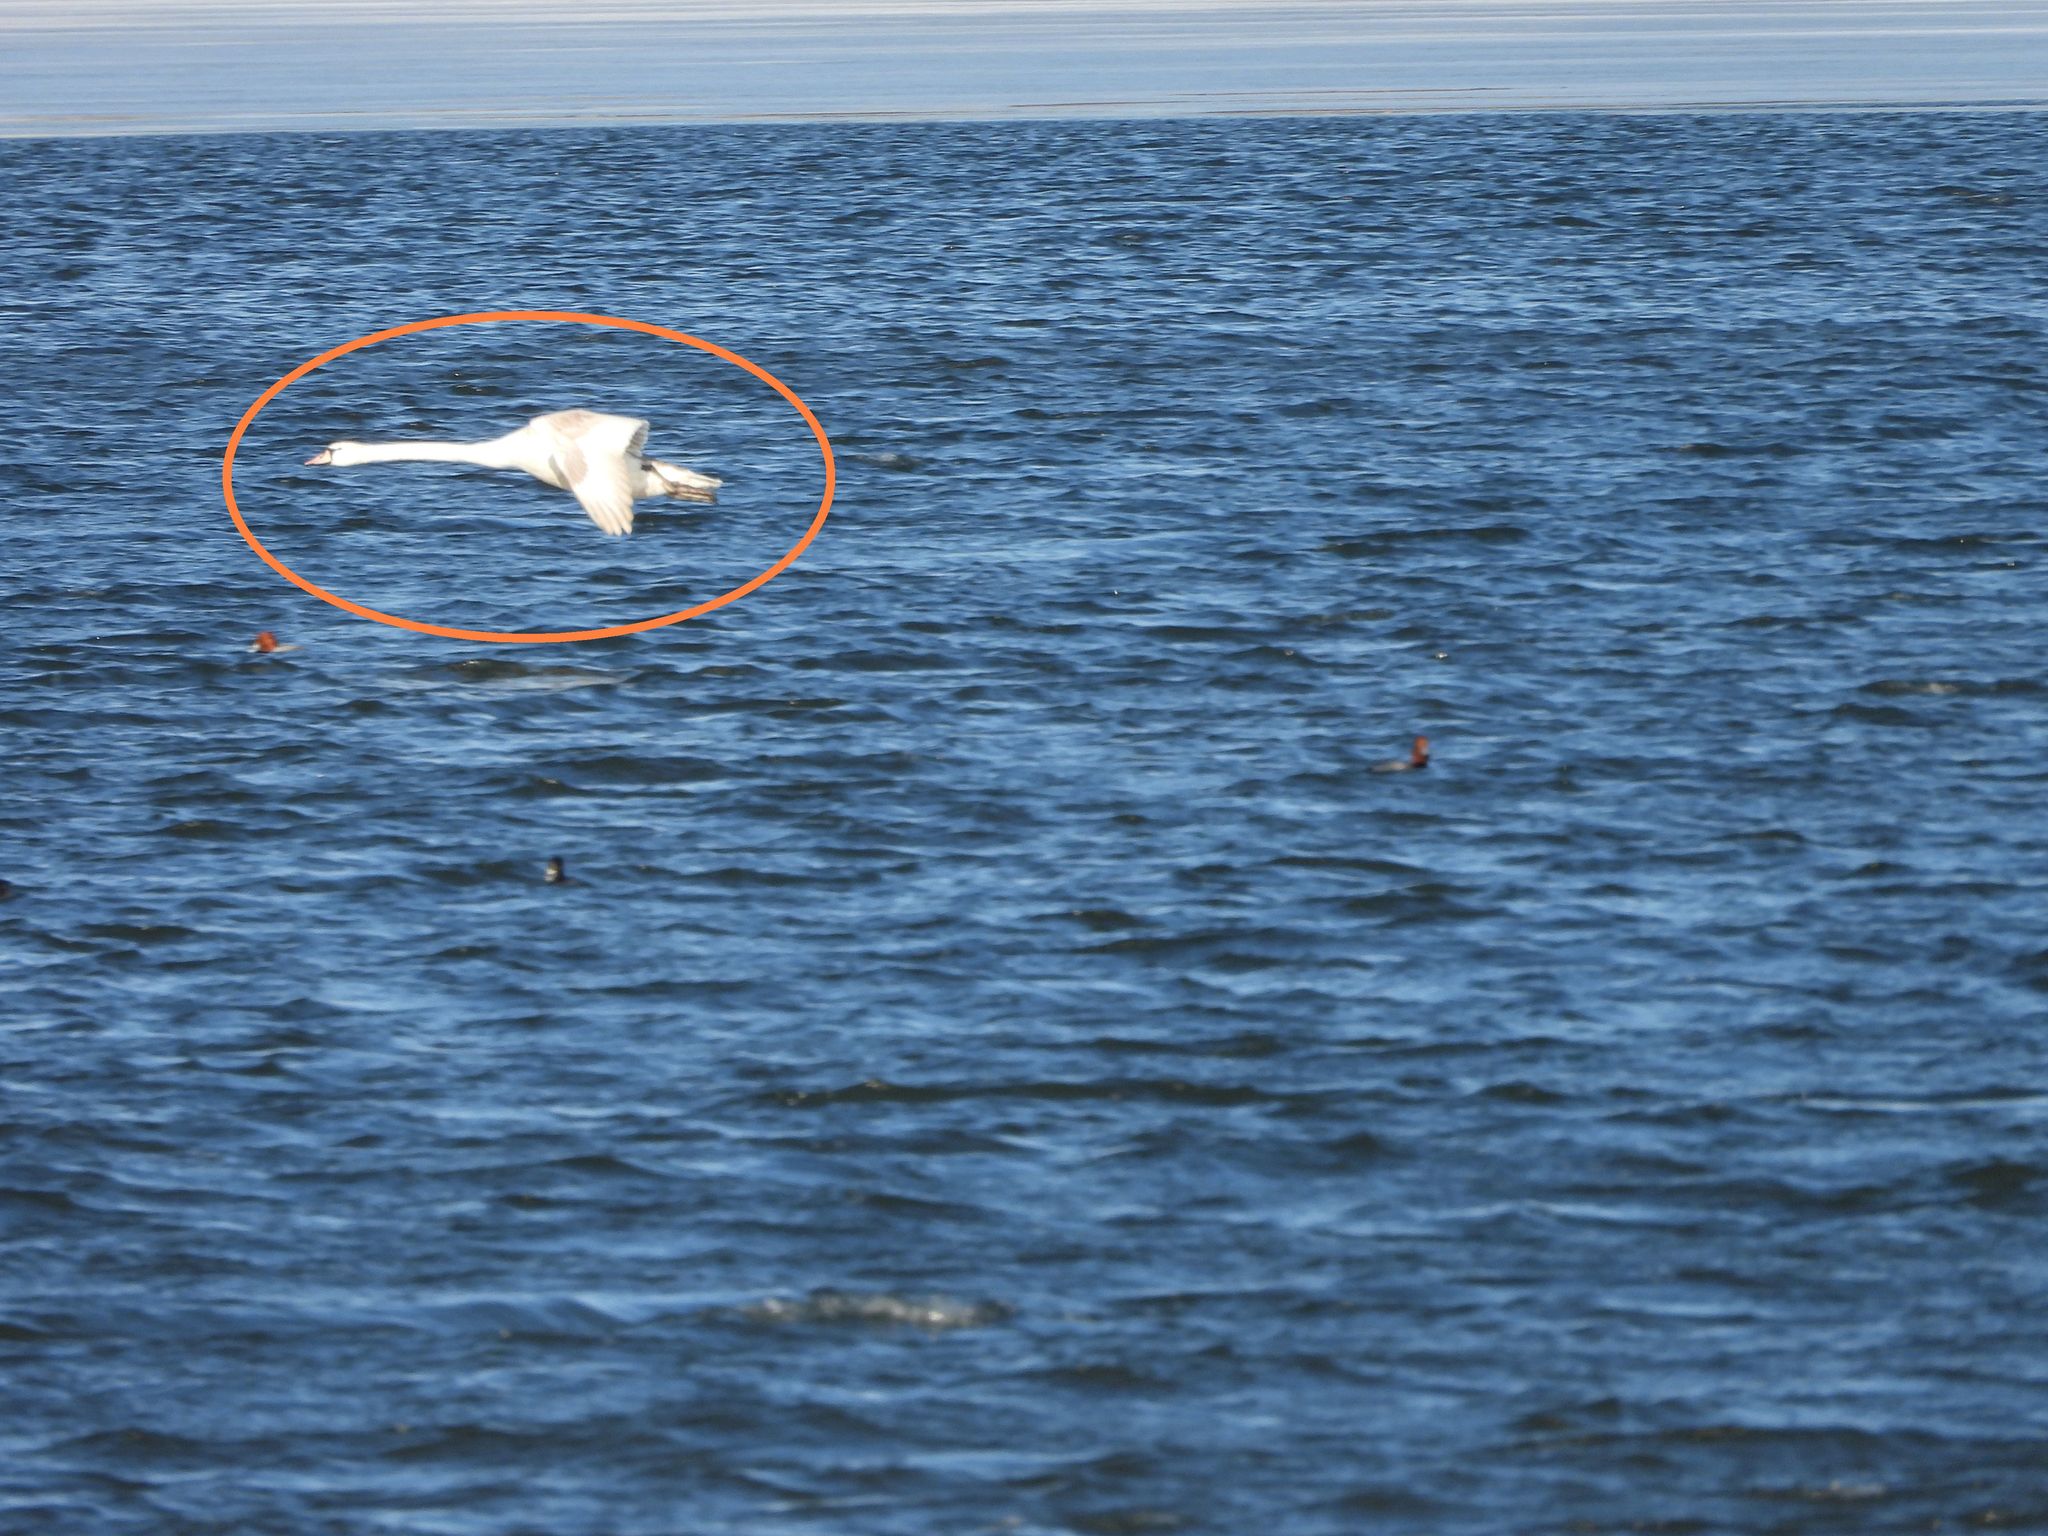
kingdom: Animalia
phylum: Chordata
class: Aves
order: Anseriformes
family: Anatidae
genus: Cygnus
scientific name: Cygnus olor
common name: Mute swan
